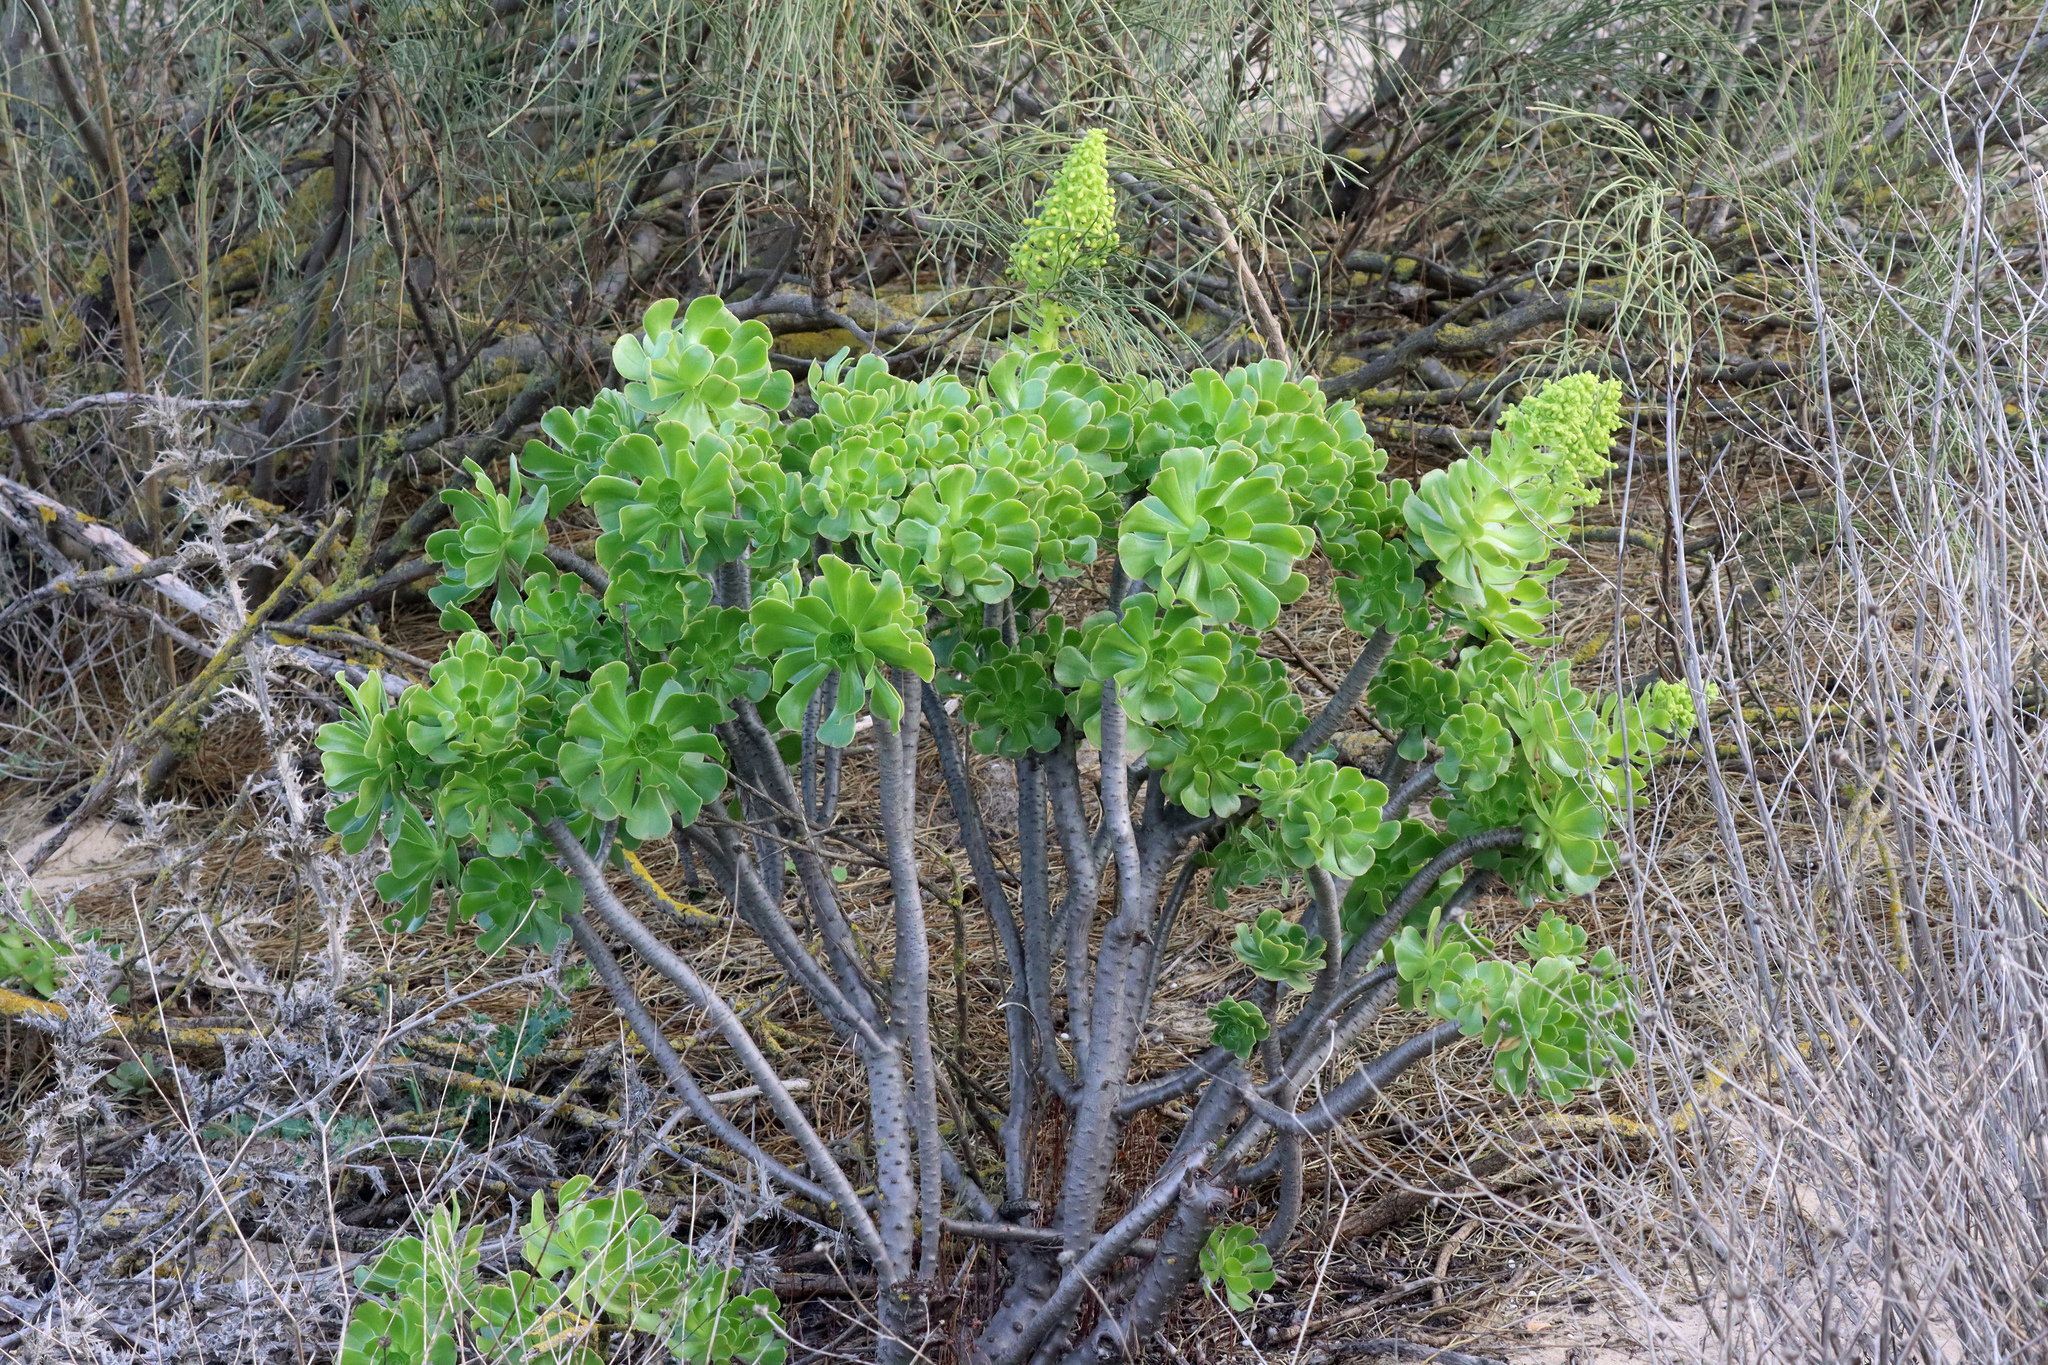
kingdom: Plantae
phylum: Tracheophyta
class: Magnoliopsida
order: Saxifragales
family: Crassulaceae
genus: Aeonium
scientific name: Aeonium arboreum
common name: Tree aeonium
